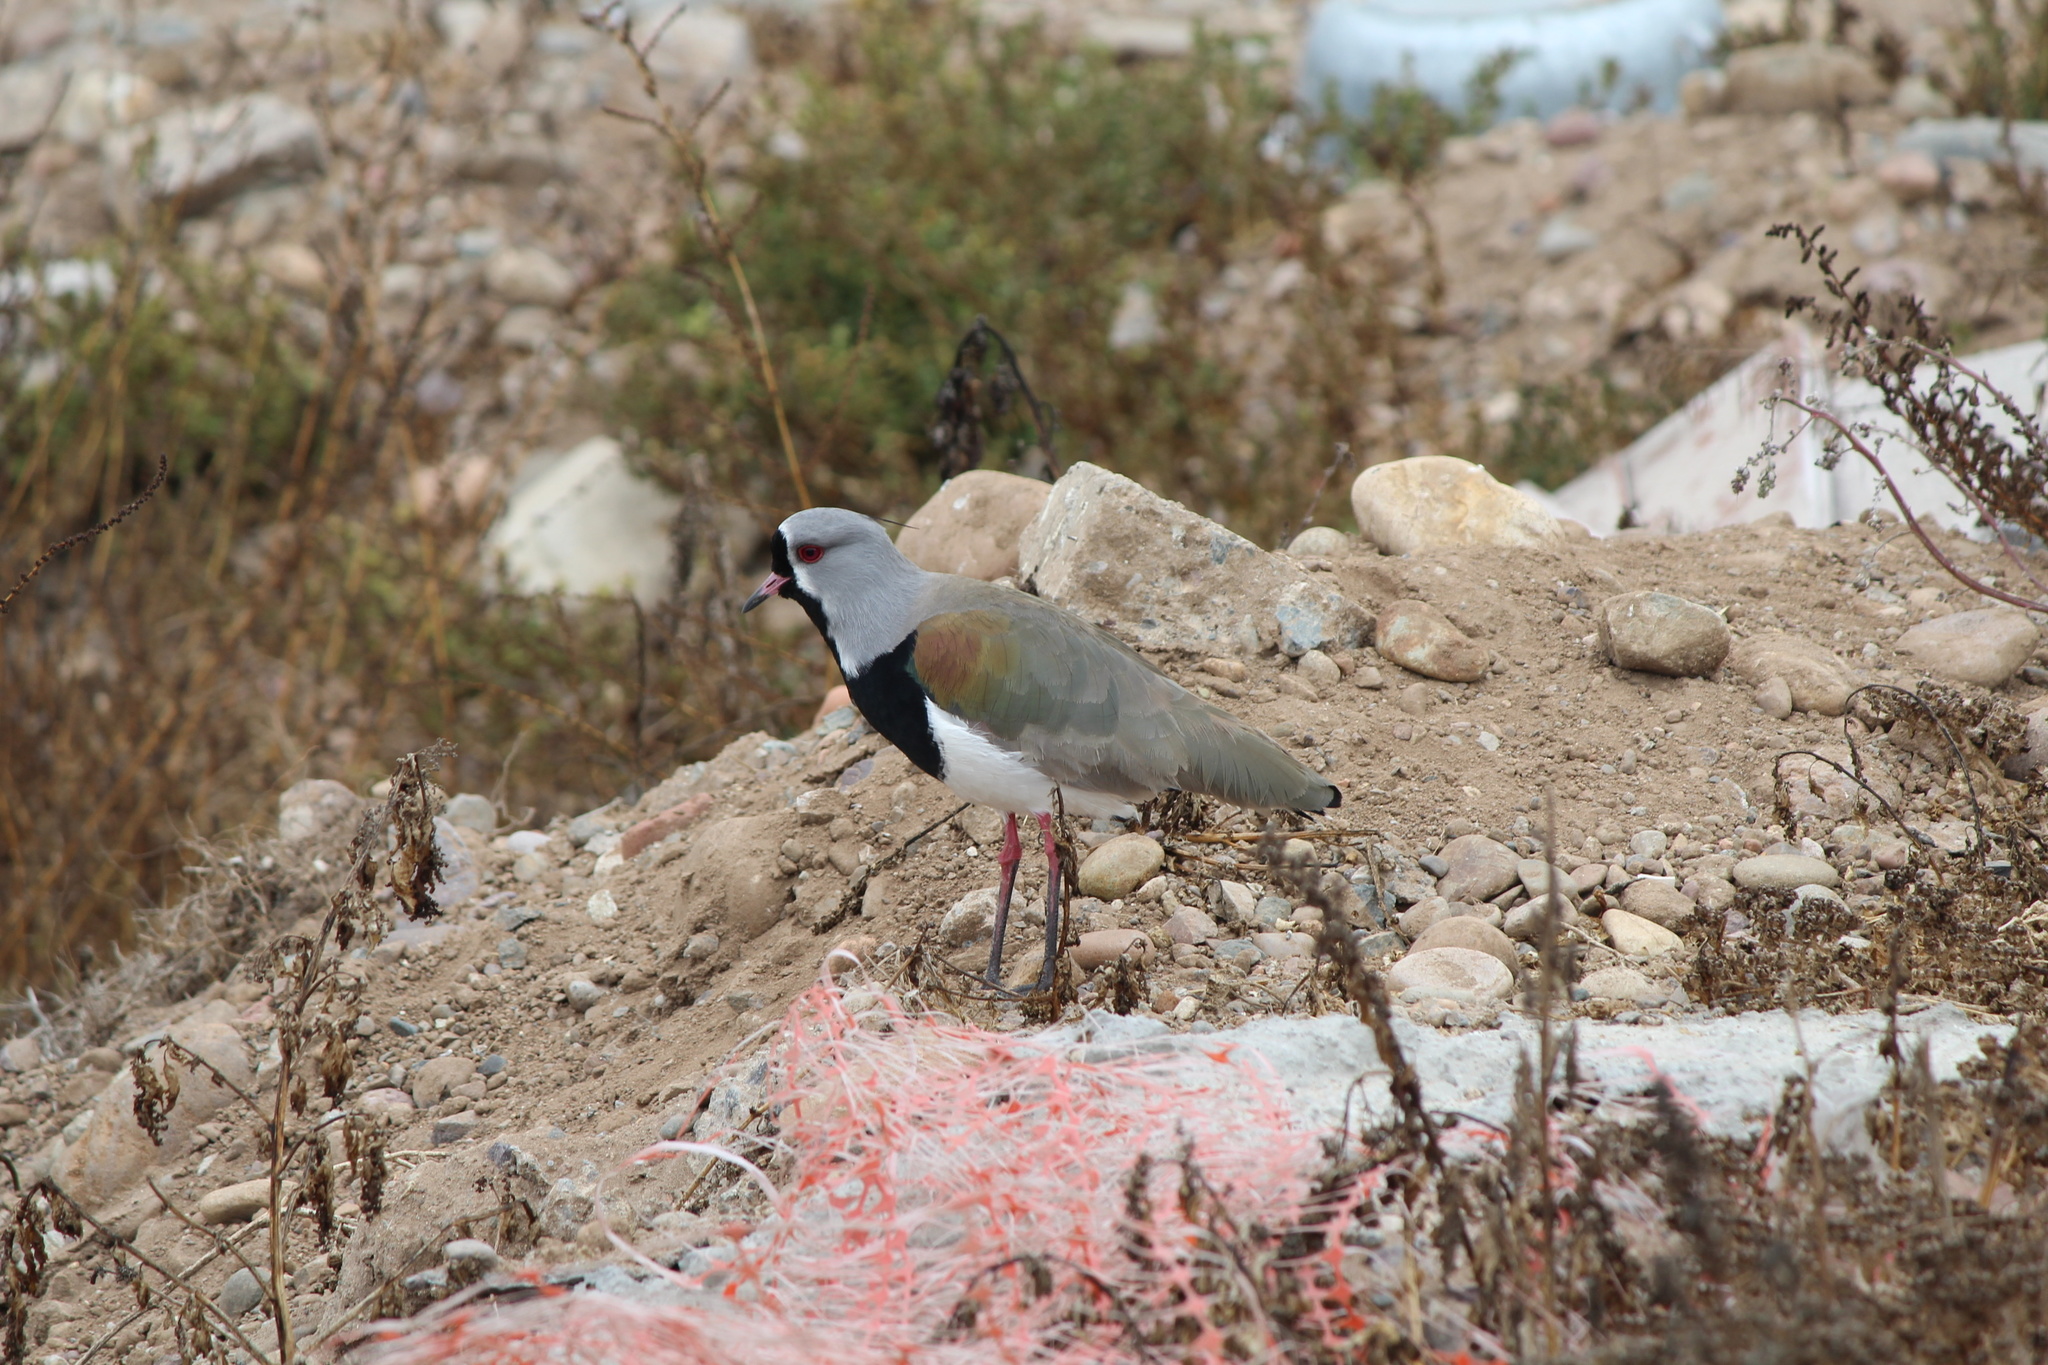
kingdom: Animalia
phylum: Chordata
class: Aves
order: Charadriiformes
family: Charadriidae
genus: Vanellus
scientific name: Vanellus chilensis
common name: Southern lapwing
